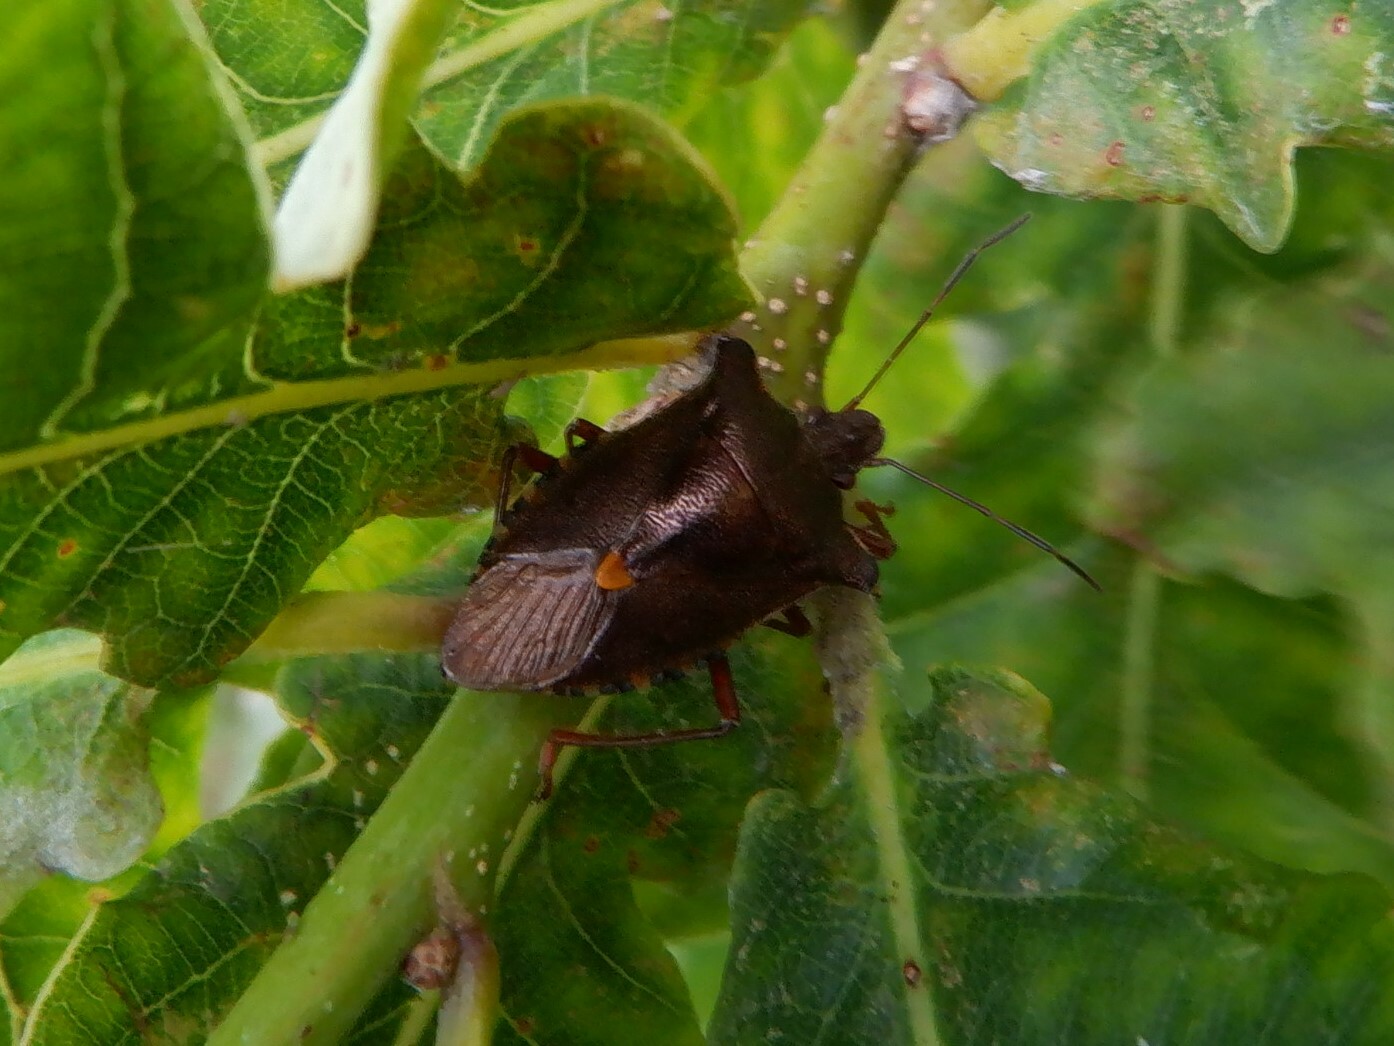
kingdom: Animalia
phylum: Arthropoda
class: Insecta
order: Hemiptera
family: Pentatomidae
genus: Pentatoma
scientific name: Pentatoma rufipes
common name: Forest bug
